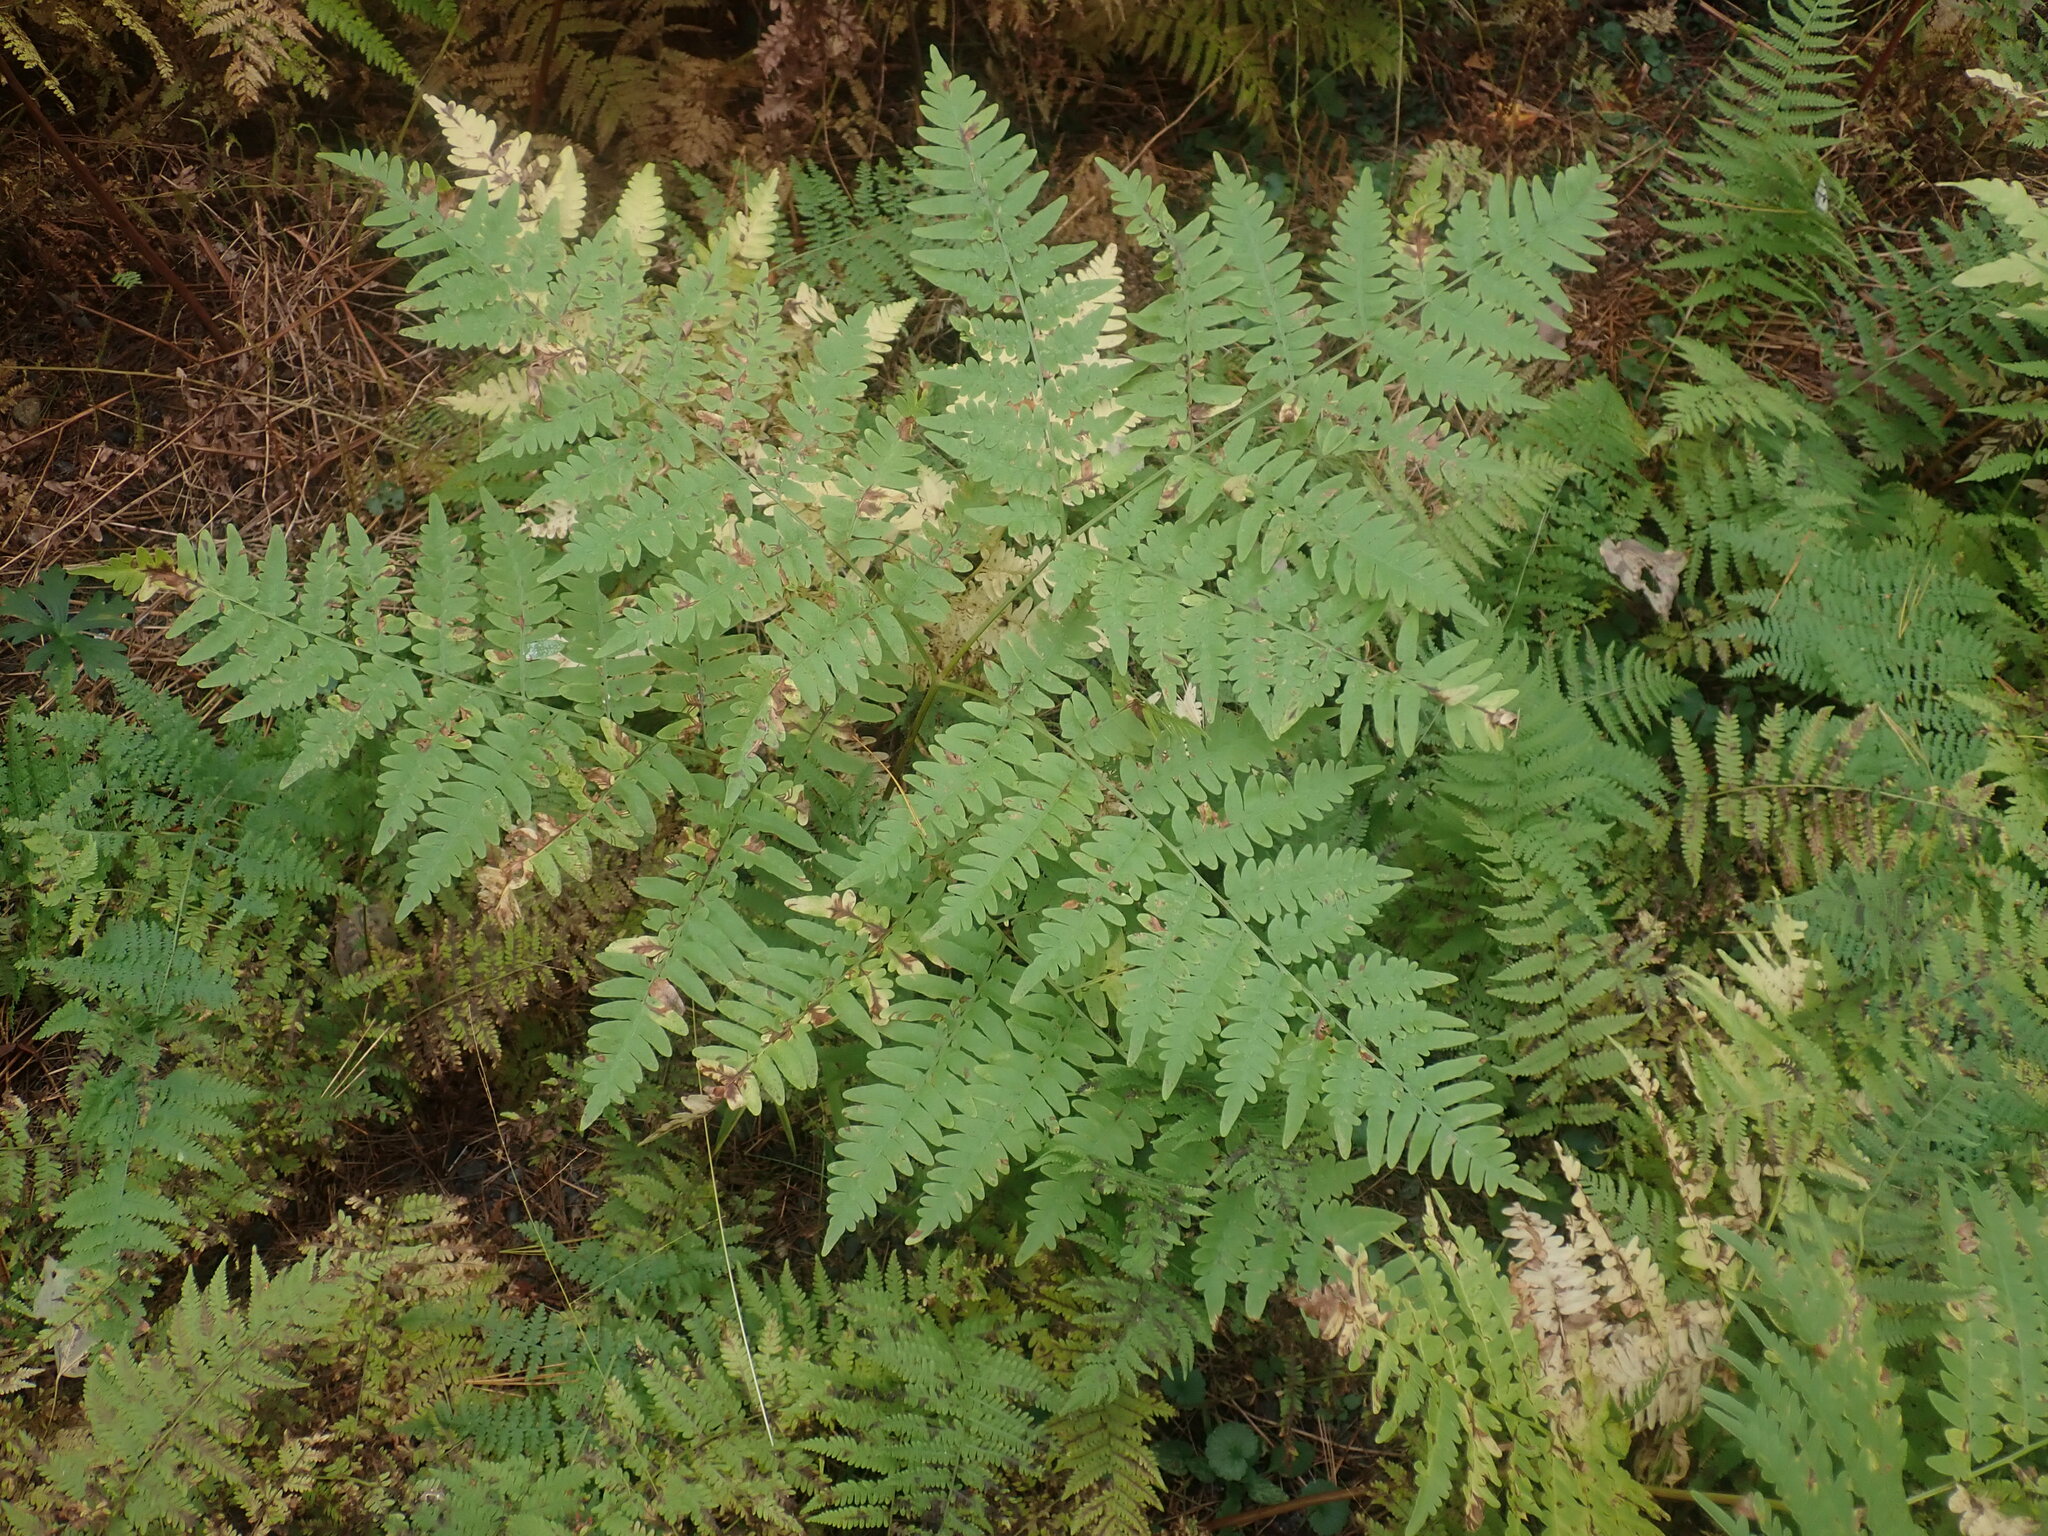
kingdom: Plantae
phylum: Tracheophyta
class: Polypodiopsida
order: Polypodiales
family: Dennstaedtiaceae
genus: Pteridium
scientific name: Pteridium aquilinum
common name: Bracken
